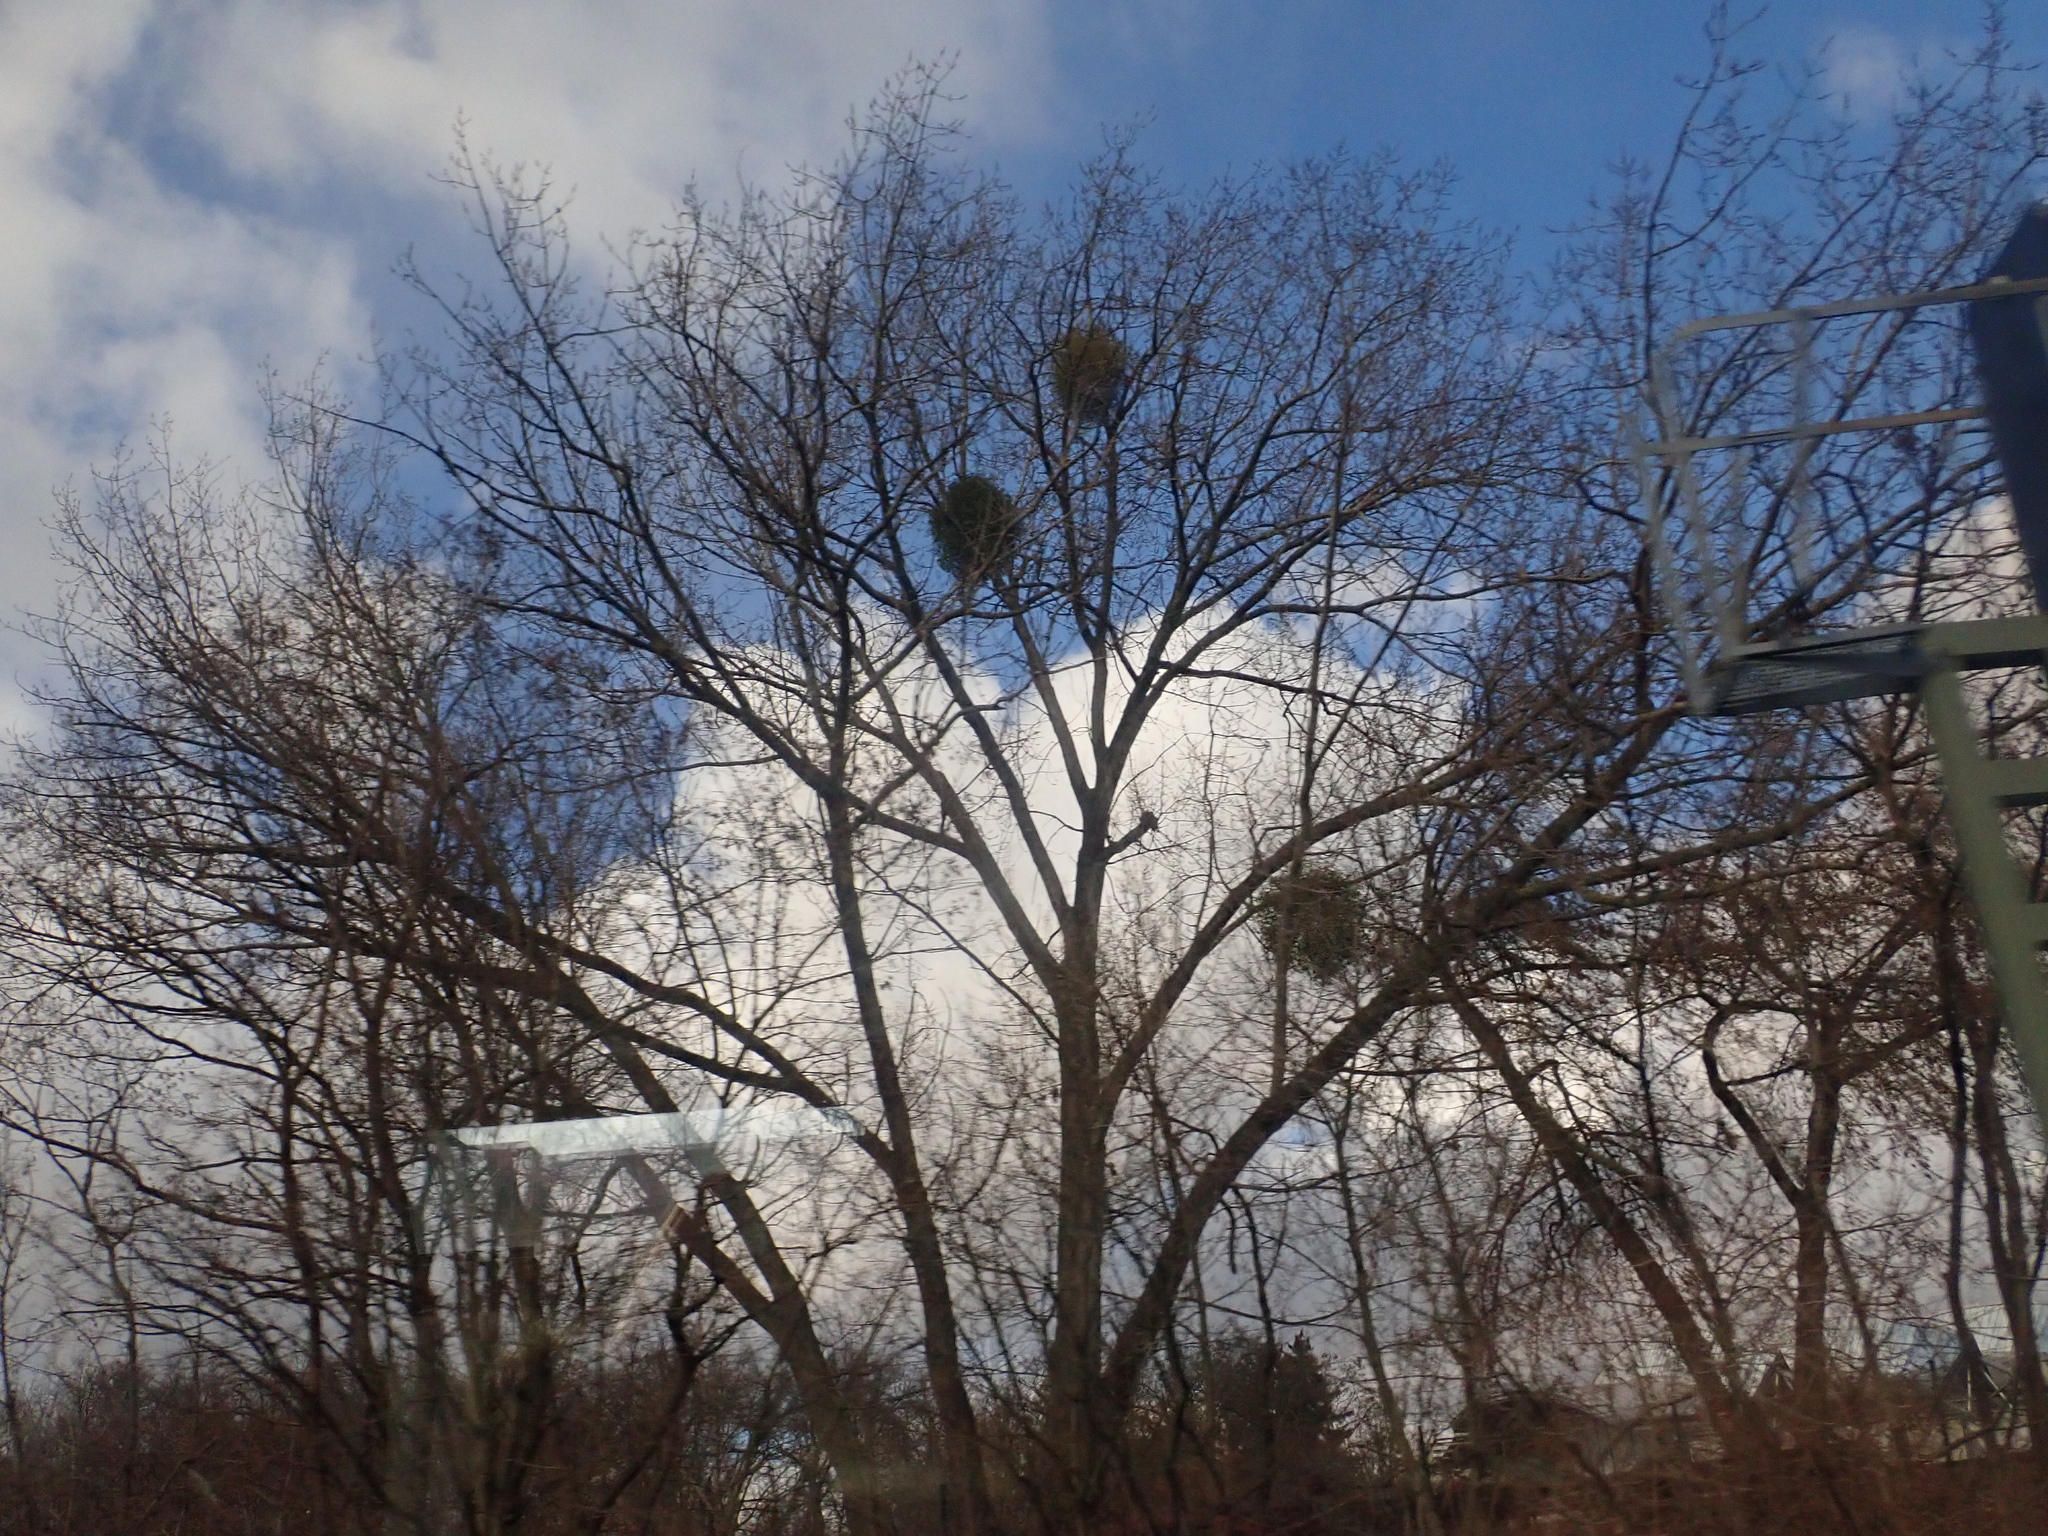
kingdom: Plantae
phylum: Tracheophyta
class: Magnoliopsida
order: Santalales
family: Viscaceae
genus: Viscum
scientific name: Viscum album
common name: Mistletoe
